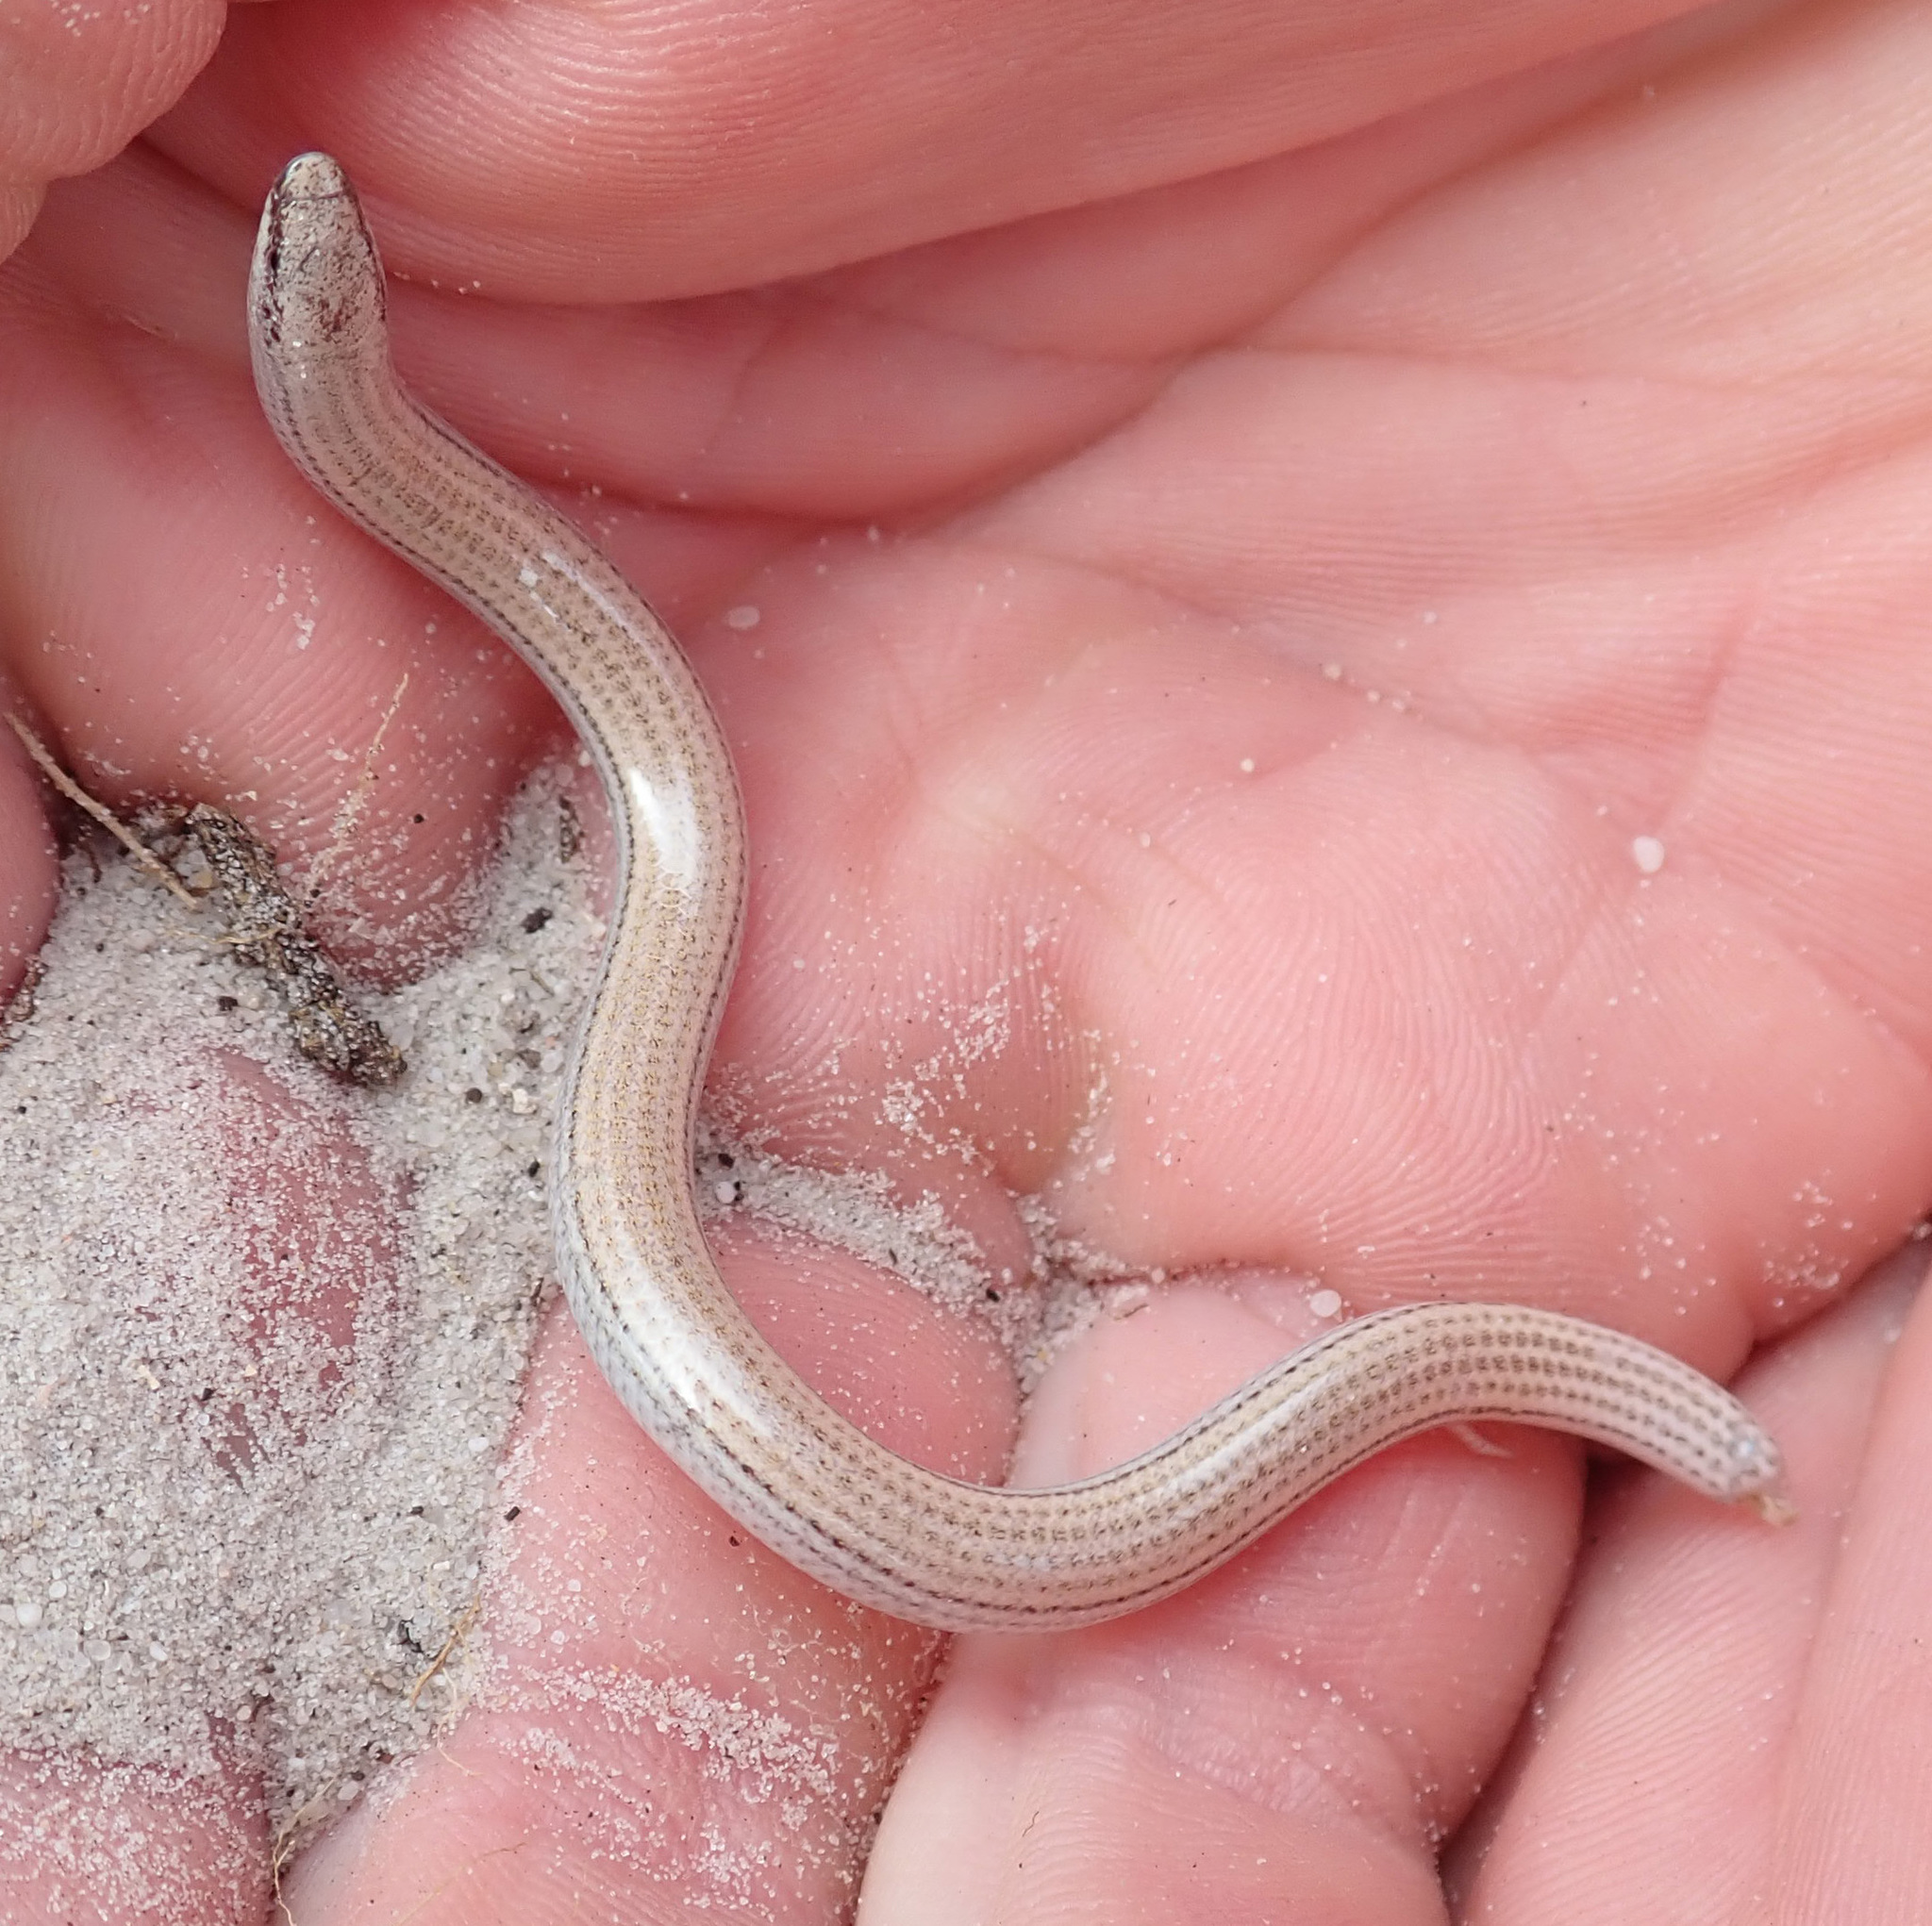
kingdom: Animalia
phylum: Chordata
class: Squamata
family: Scincidae
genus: Scelotes
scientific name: Scelotes bipes
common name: Common burrowing skink
